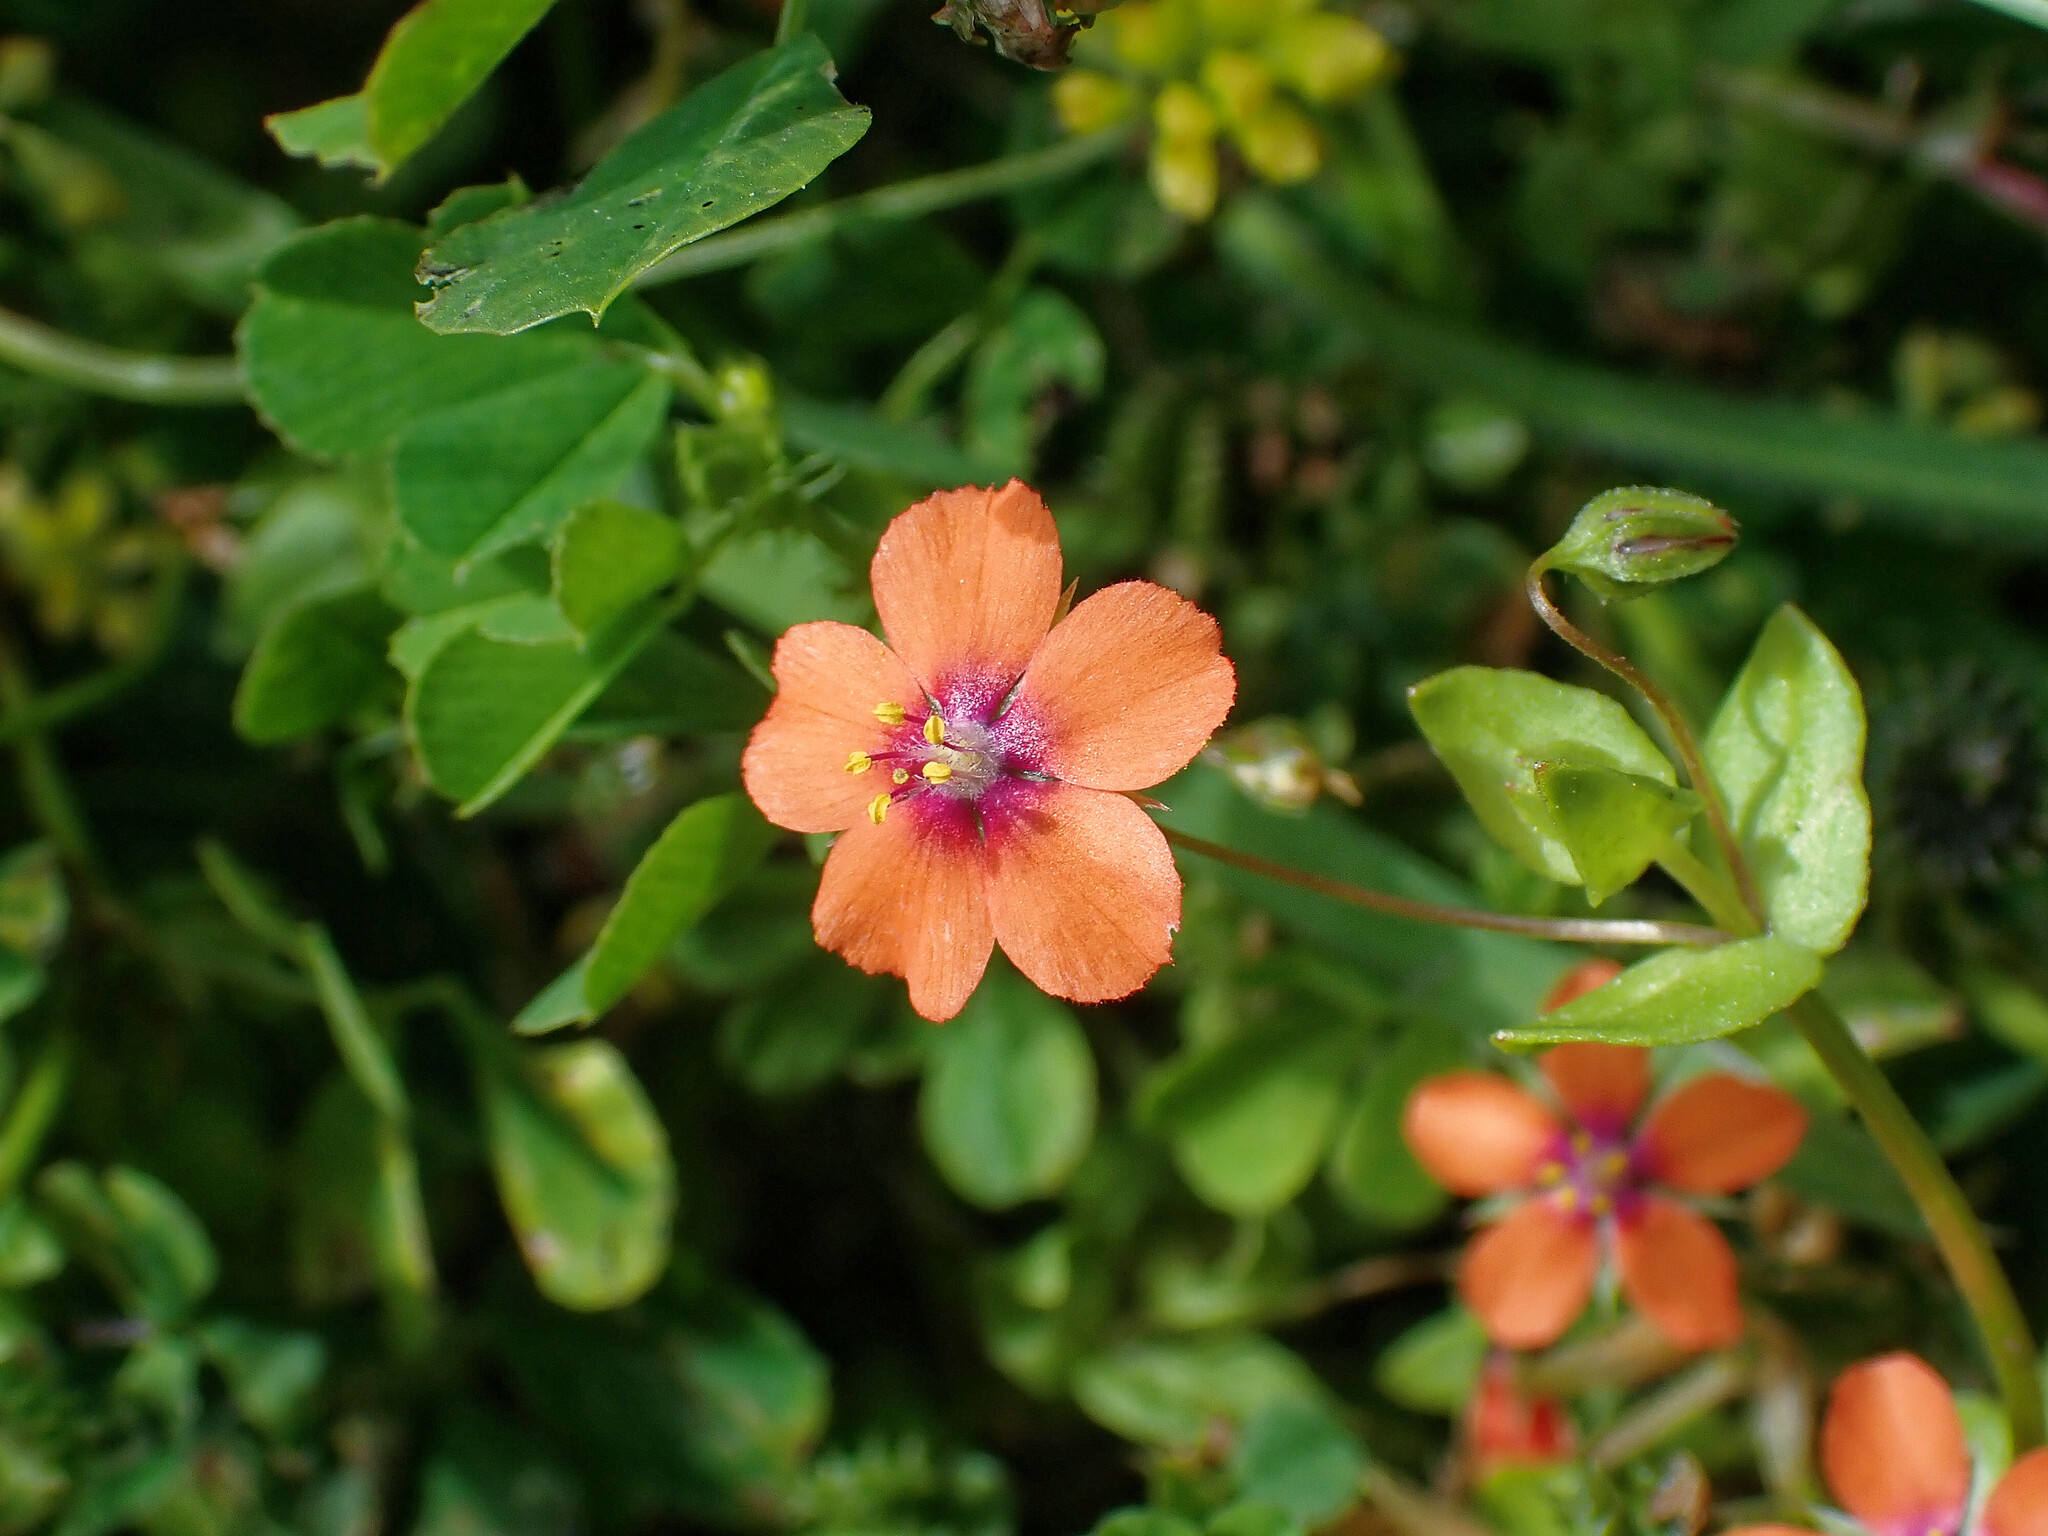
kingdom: Plantae
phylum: Tracheophyta
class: Magnoliopsida
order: Ericales
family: Primulaceae
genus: Lysimachia
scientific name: Lysimachia arvensis
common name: Scarlet pimpernel
